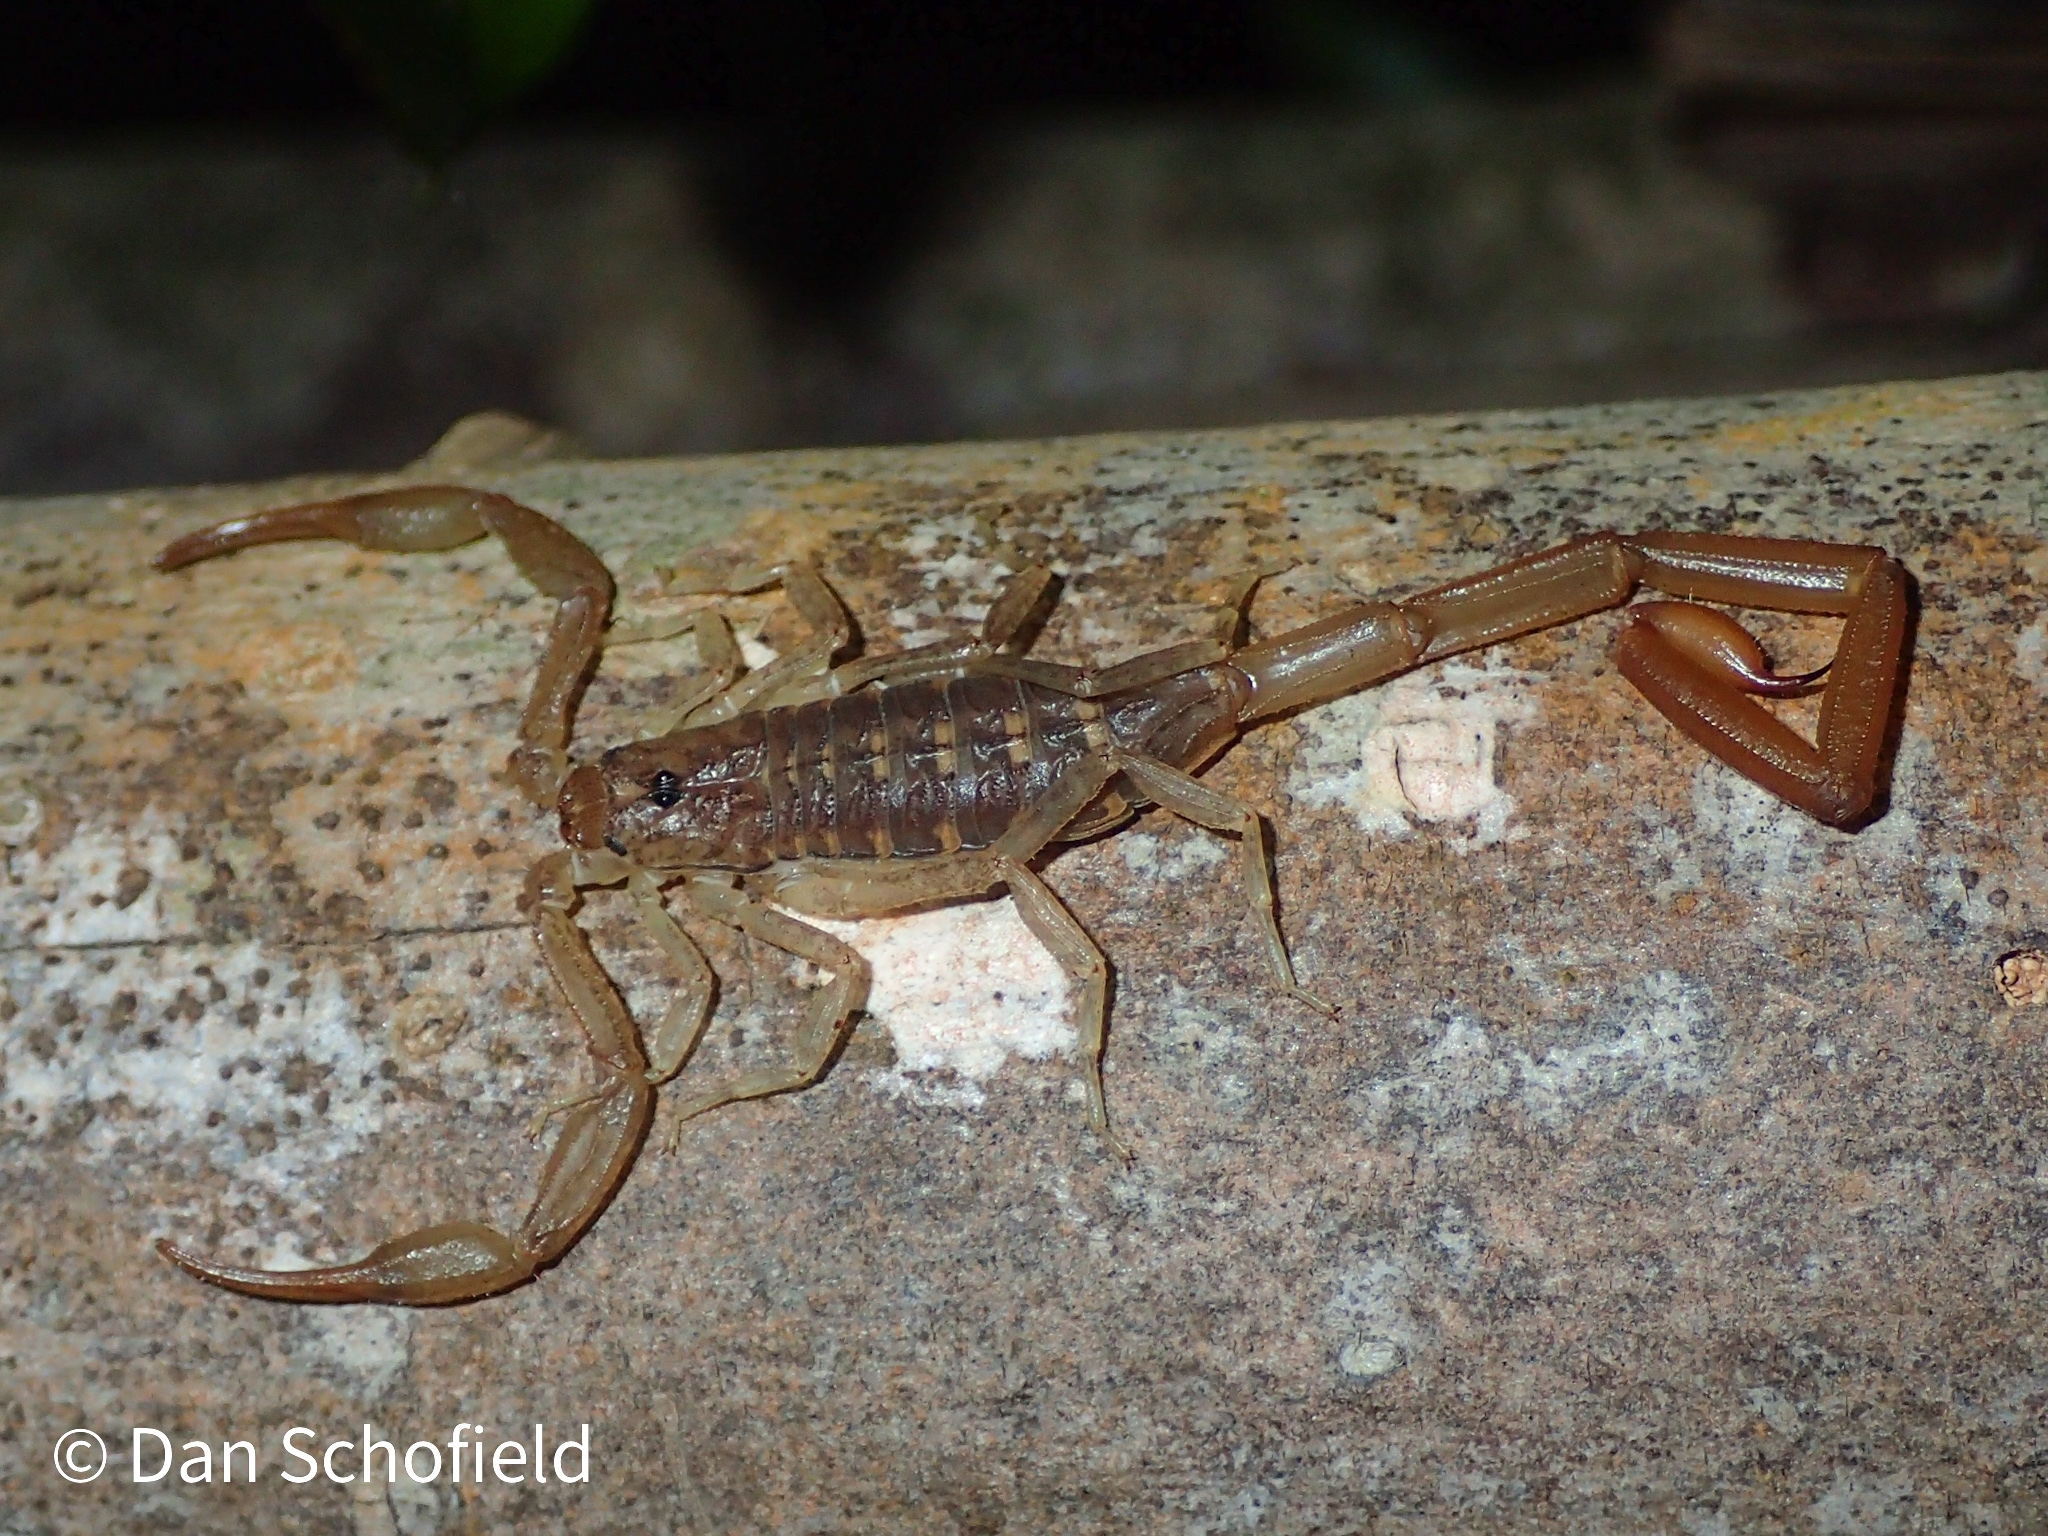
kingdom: Animalia
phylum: Arthropoda
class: Arachnida
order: Scorpiones
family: Buthidae
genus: Centruroides
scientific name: Centruroides barbudensis
